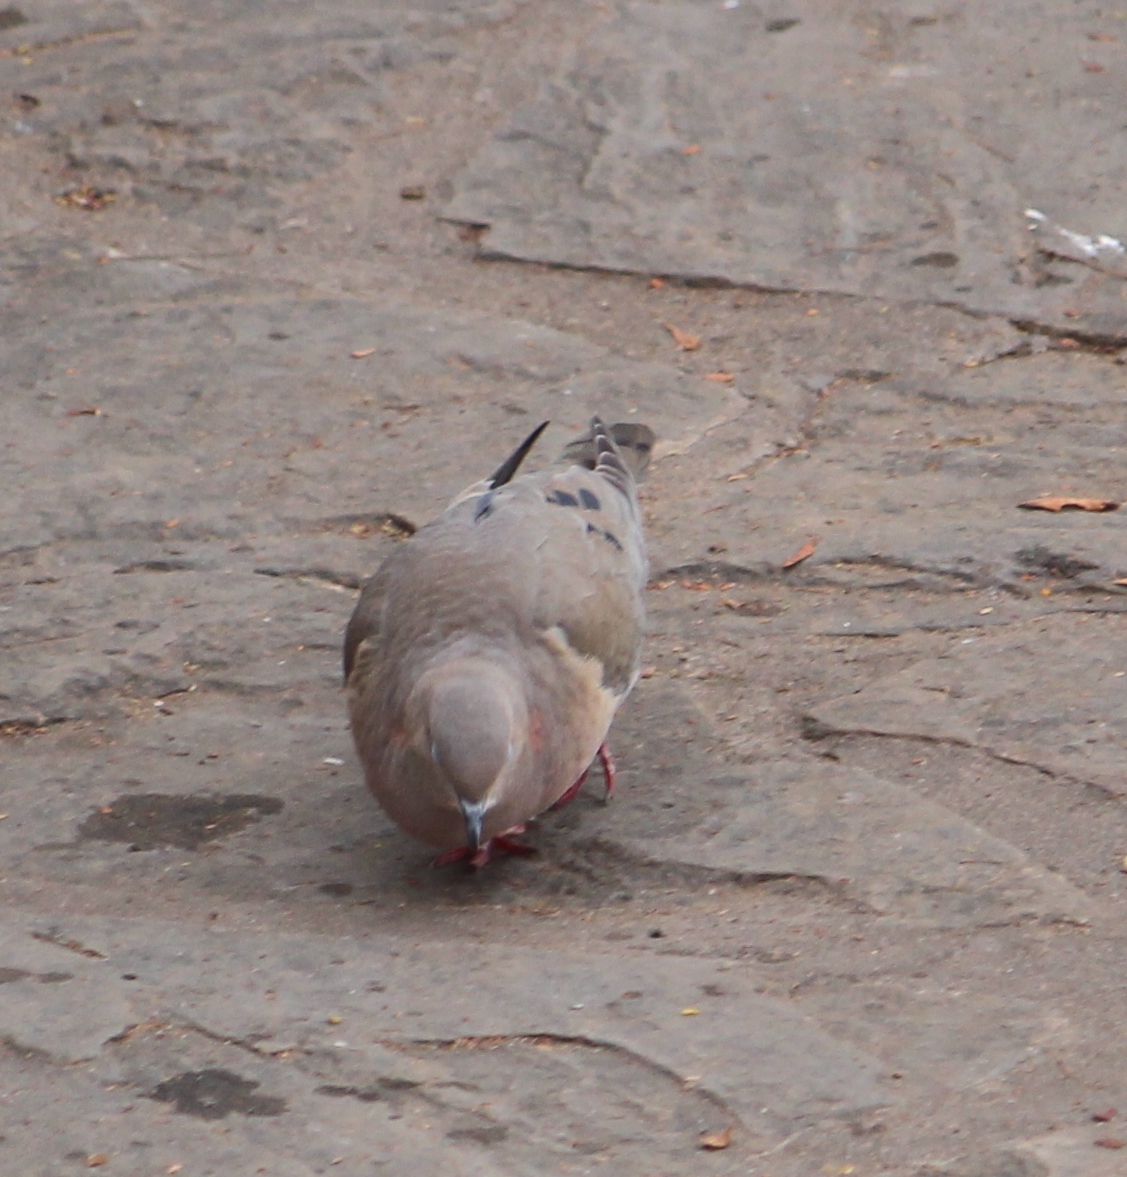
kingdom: Animalia
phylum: Chordata
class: Aves
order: Columbiformes
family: Columbidae
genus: Zenaida
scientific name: Zenaida auriculata
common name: Eared dove
